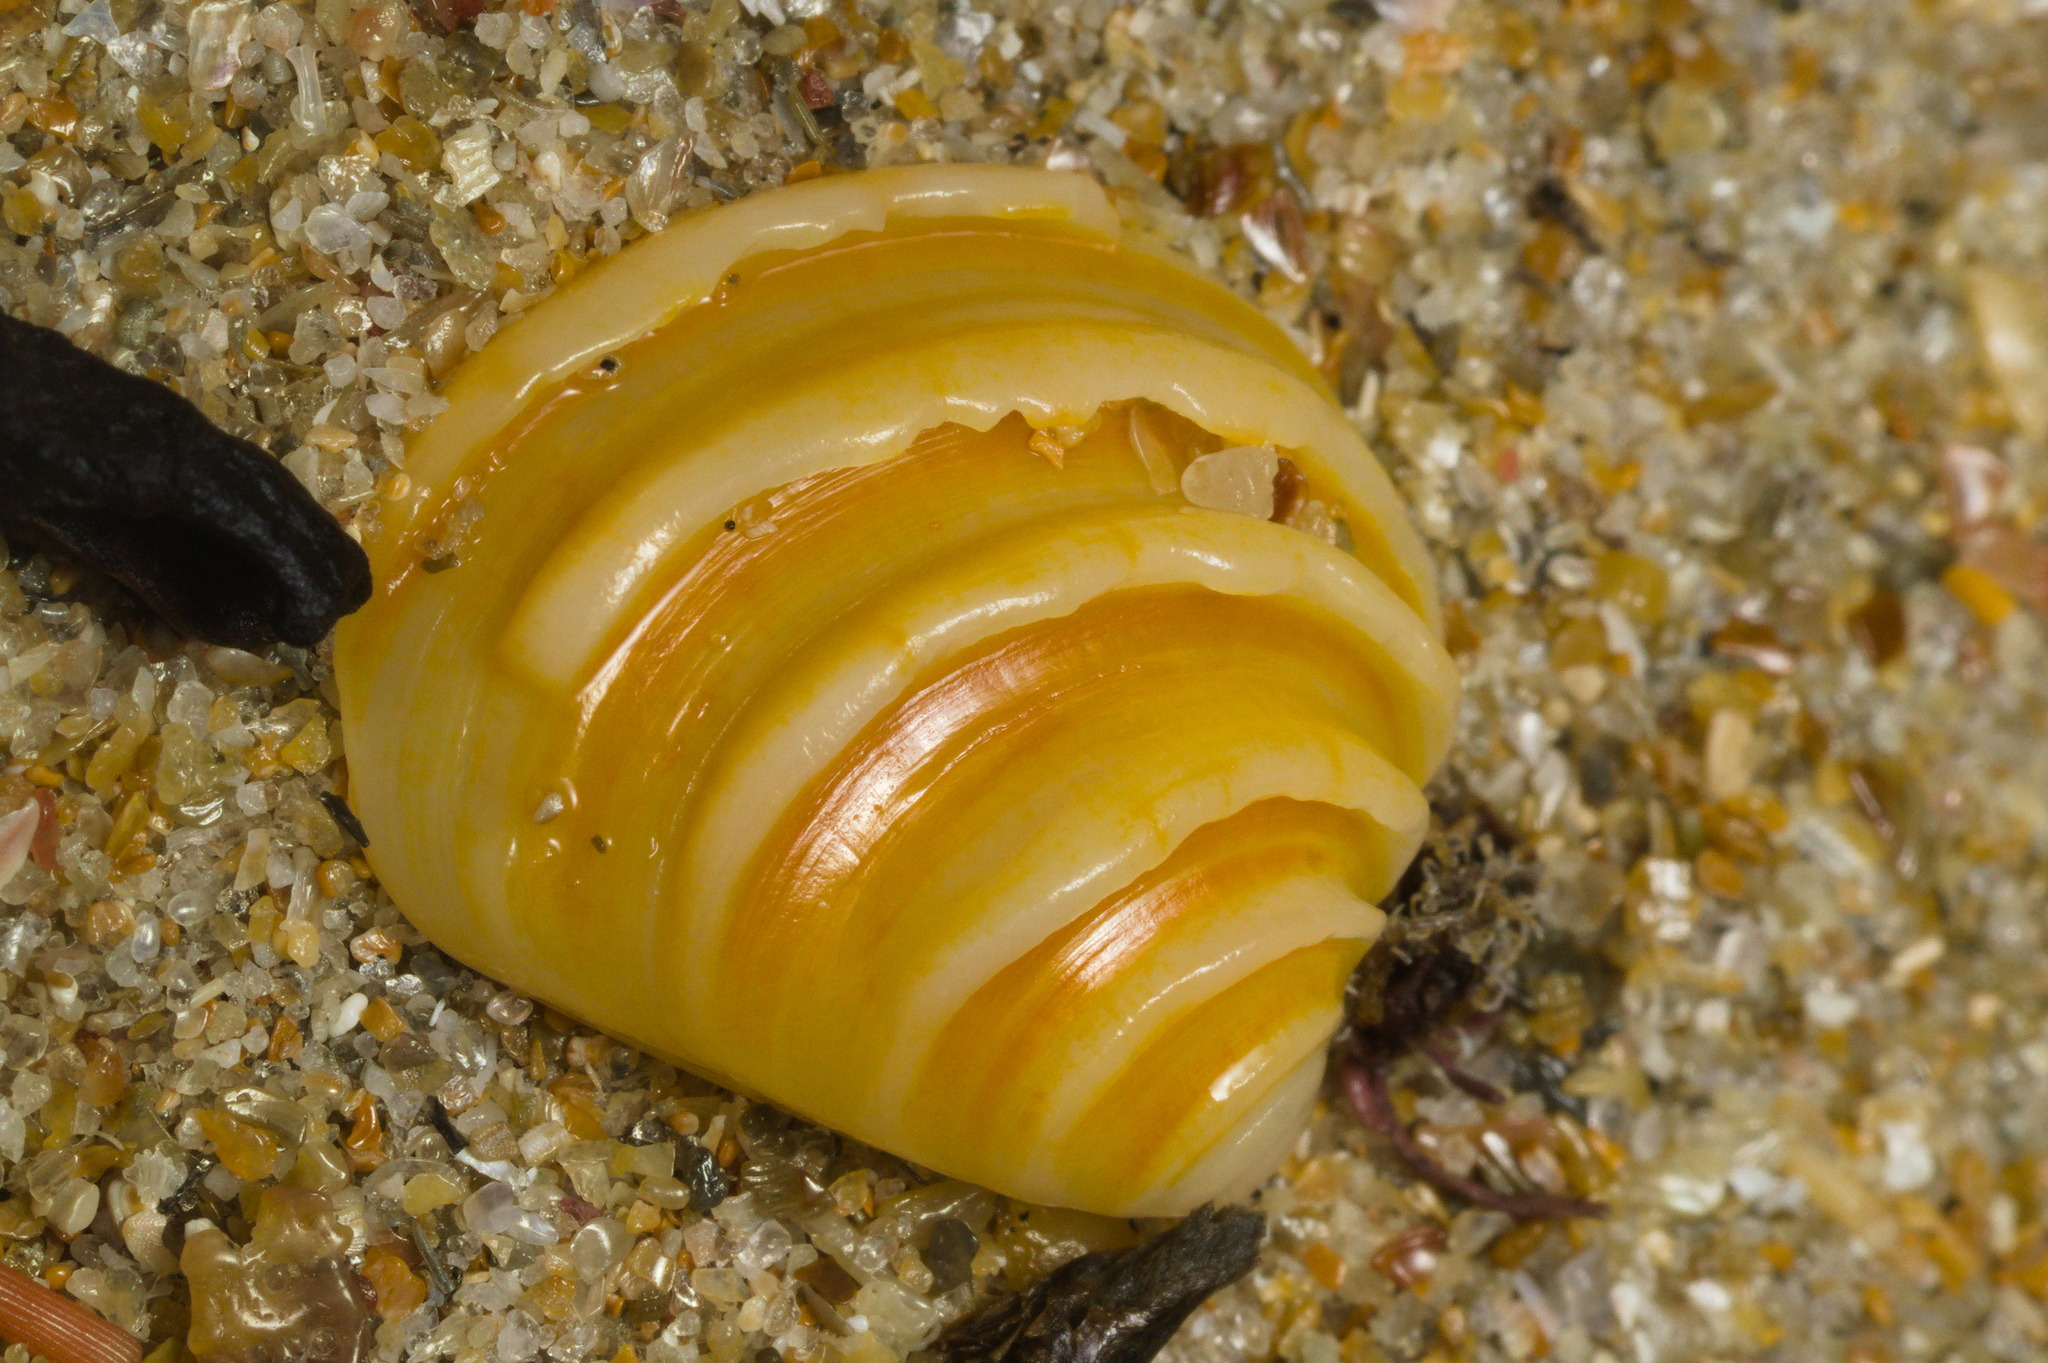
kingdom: Animalia
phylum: Mollusca
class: Bivalvia
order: Venerida
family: Veneridae
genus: Lirophora
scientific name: Lirophora paphia
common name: King venus
